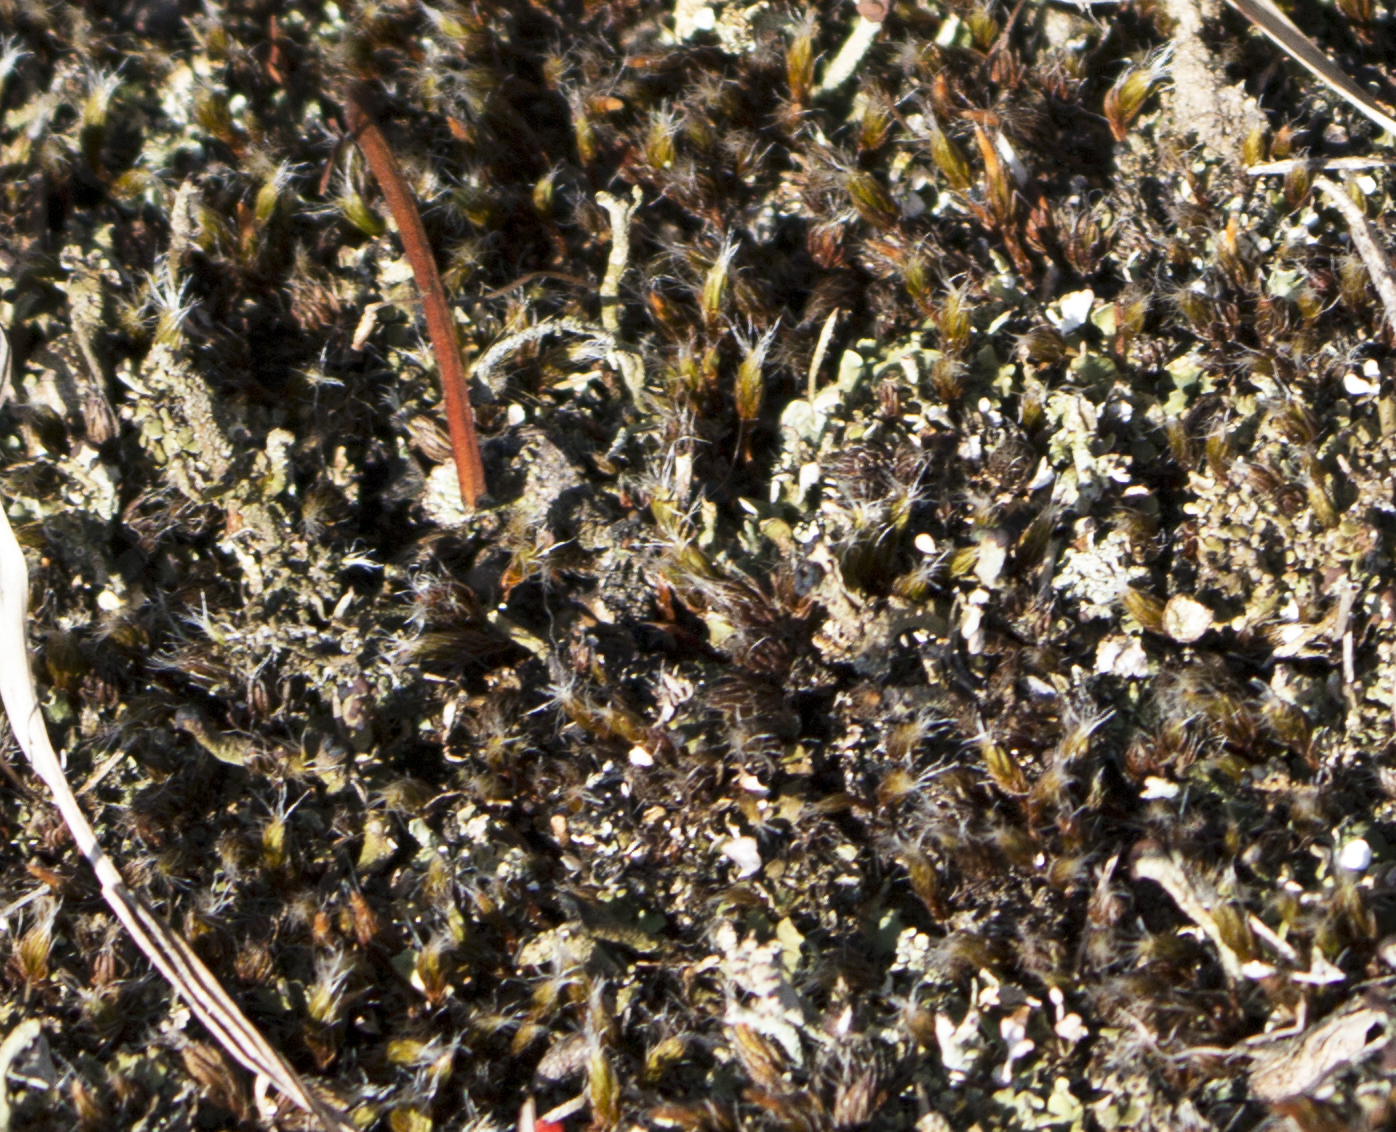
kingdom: Plantae
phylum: Bryophyta
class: Polytrichopsida
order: Polytrichales
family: Polytrichaceae
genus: Polytrichum
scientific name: Polytrichum piliferum
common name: Bristly haircap
